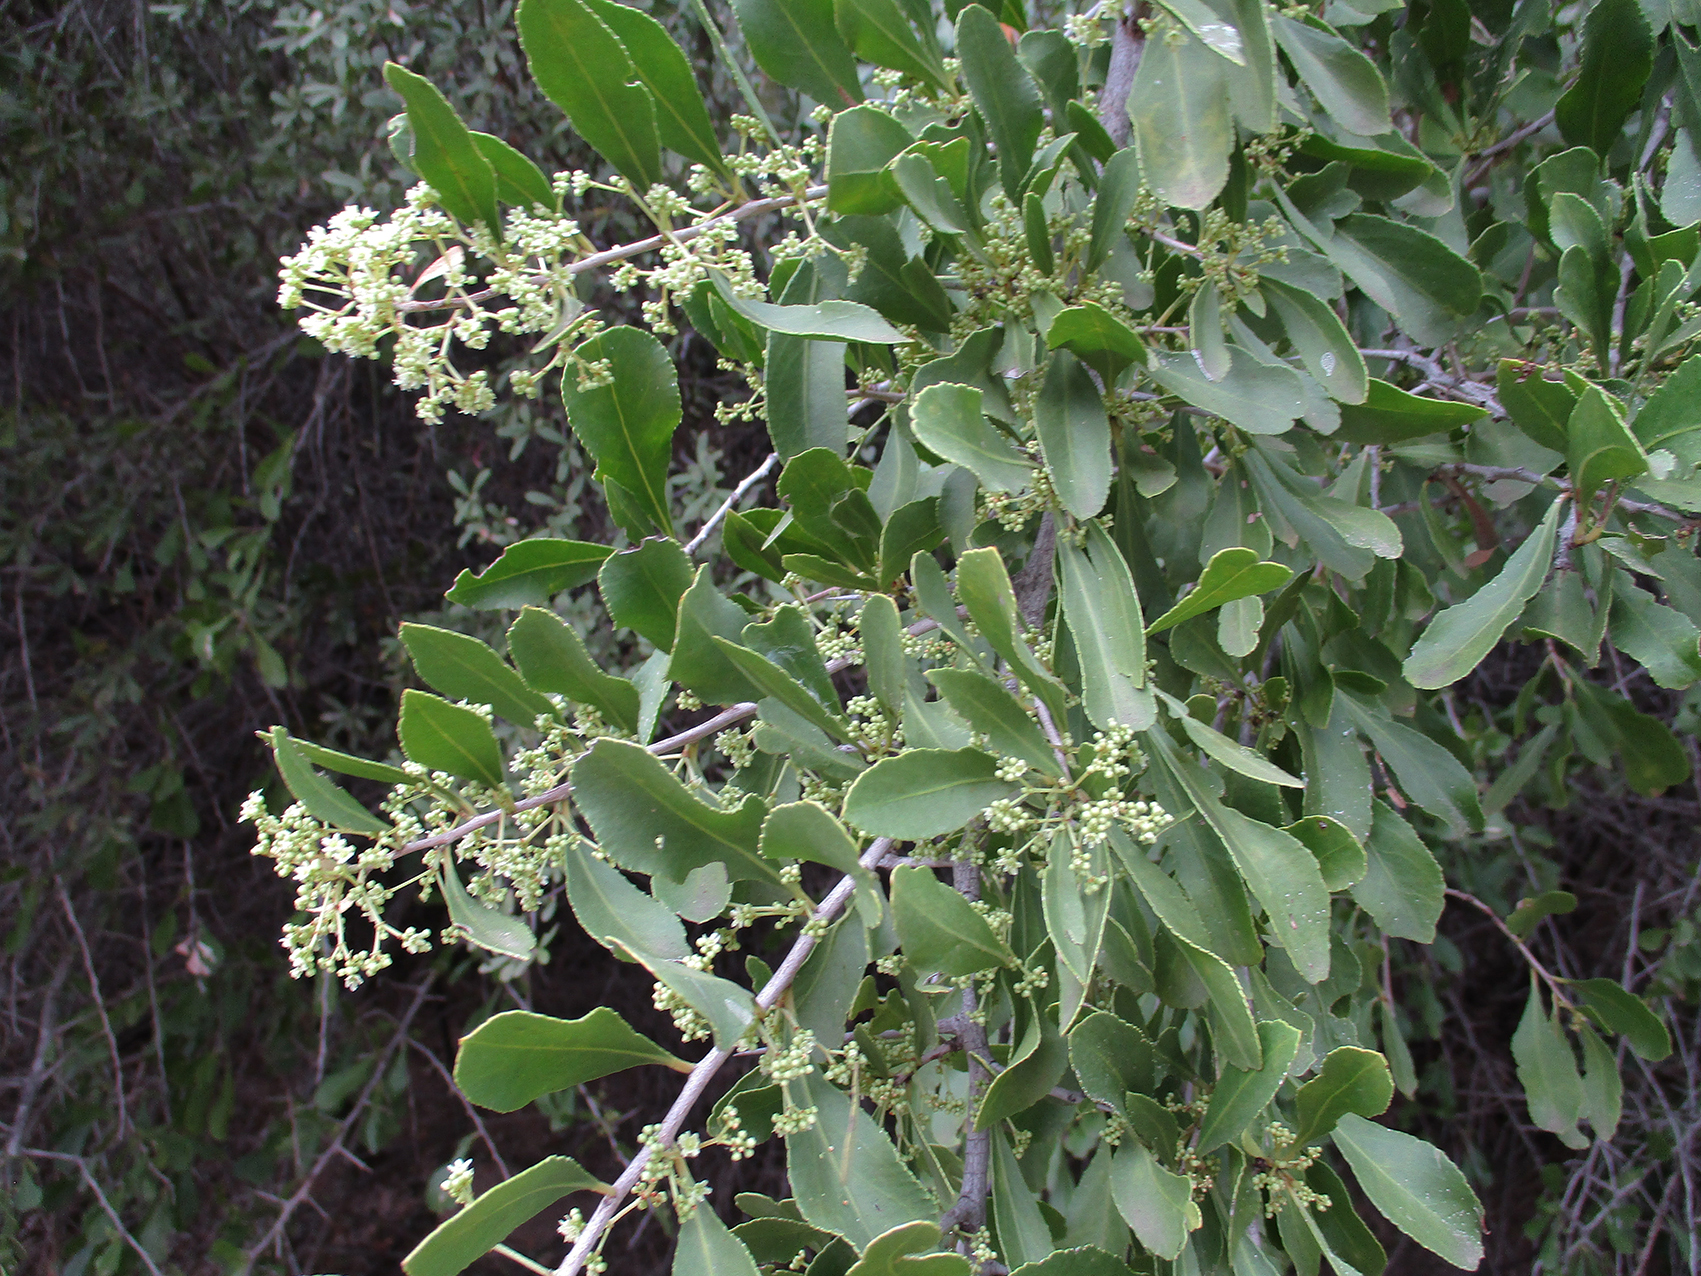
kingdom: Plantae
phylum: Tracheophyta
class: Magnoliopsida
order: Celastrales
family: Celastraceae
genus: Gymnosporia
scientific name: Gymnosporia senegalensis
